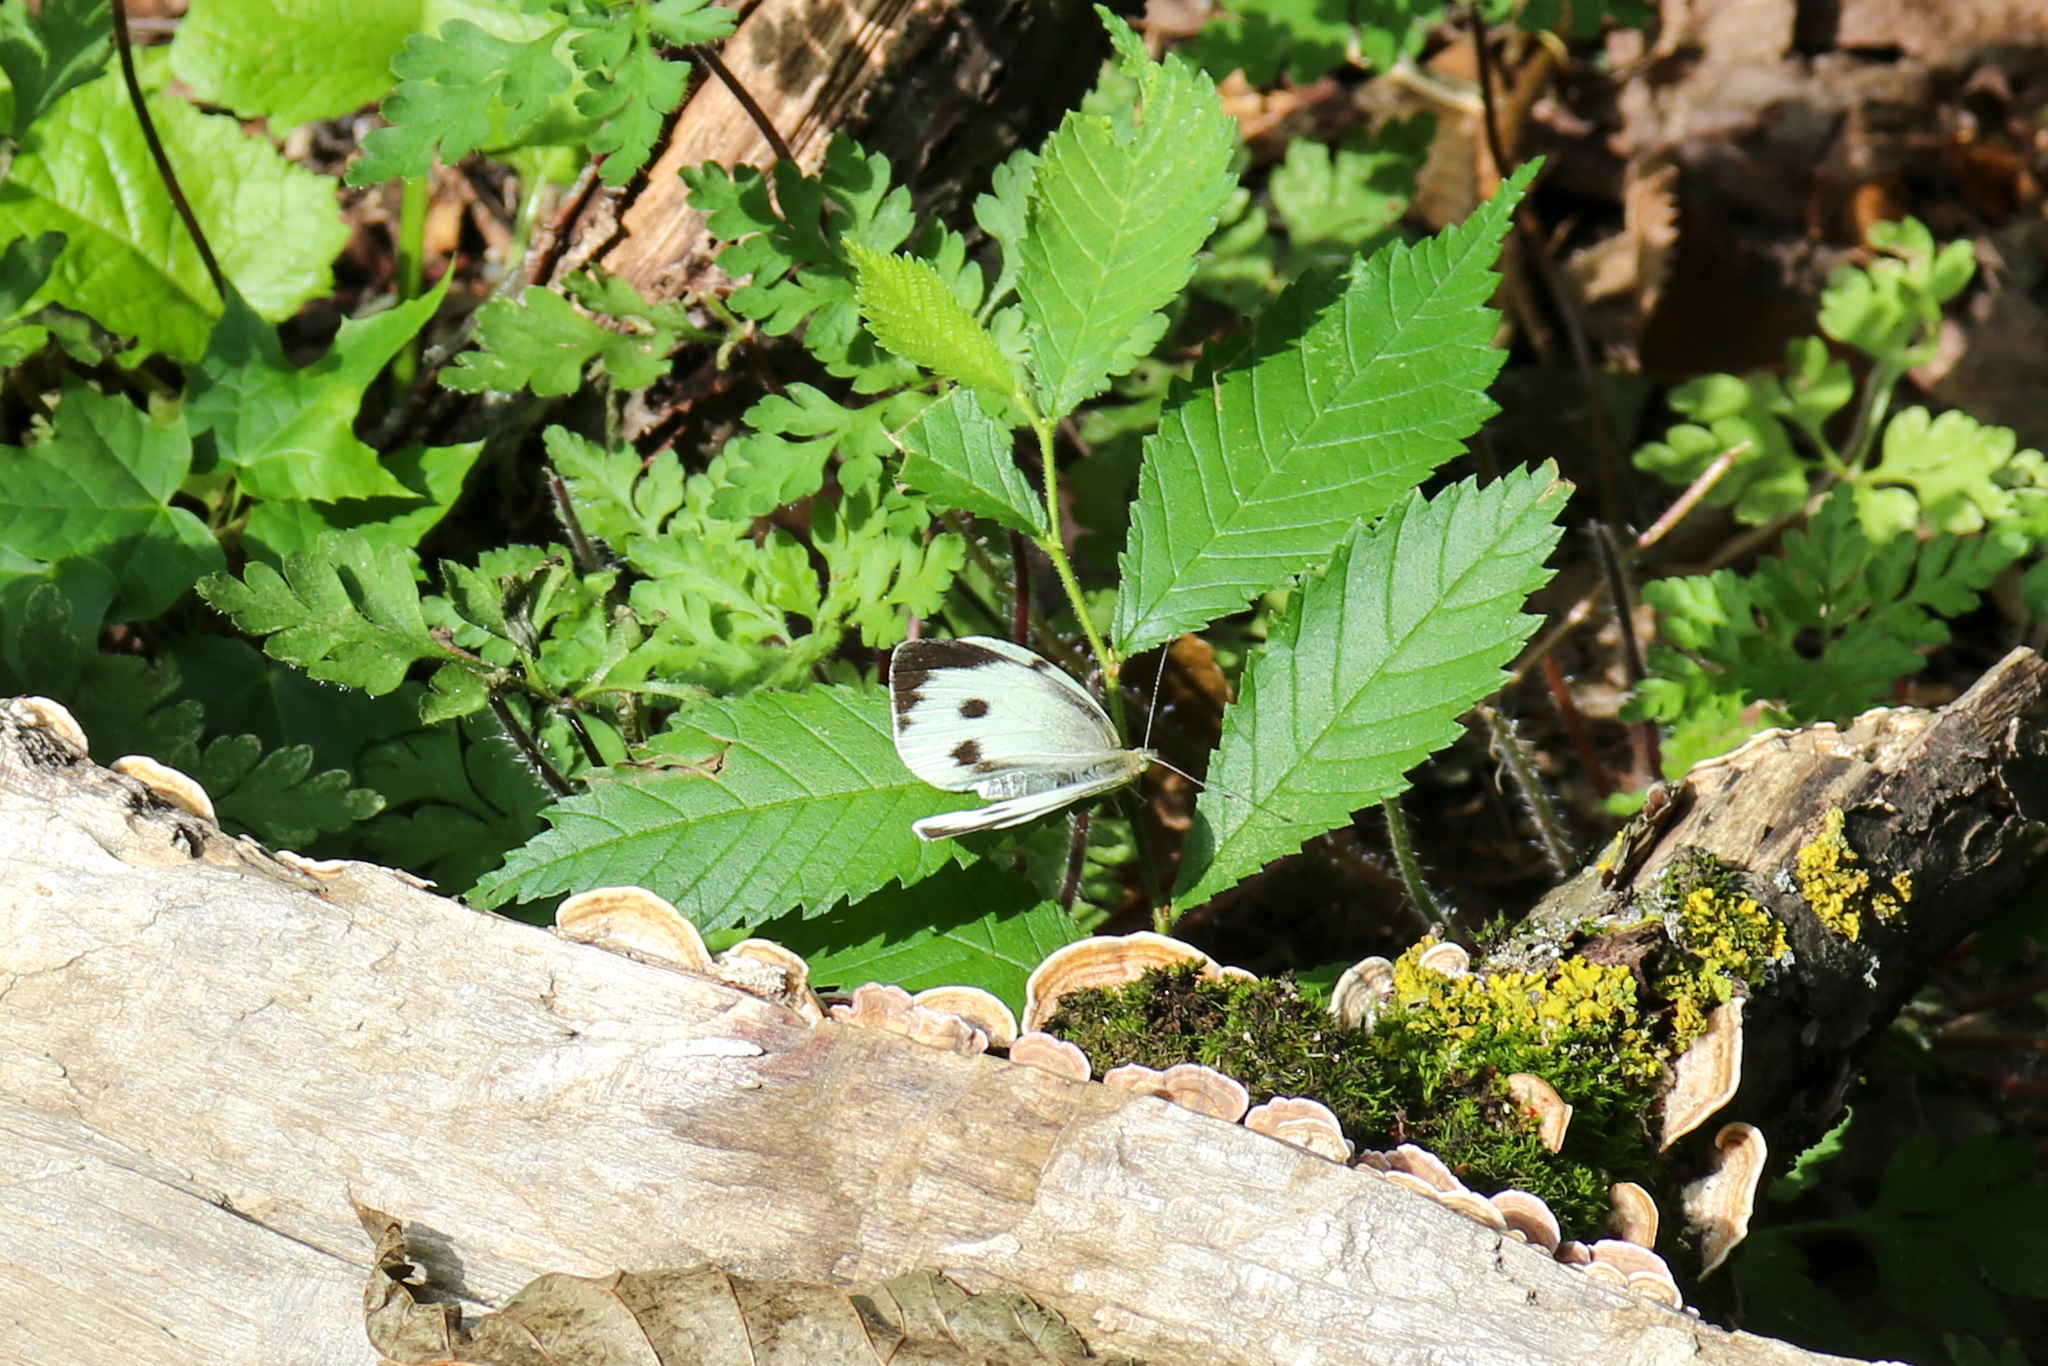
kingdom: Animalia
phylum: Arthropoda
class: Insecta
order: Lepidoptera
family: Pieridae
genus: Pieris
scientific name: Pieris brassicae
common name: Large white
